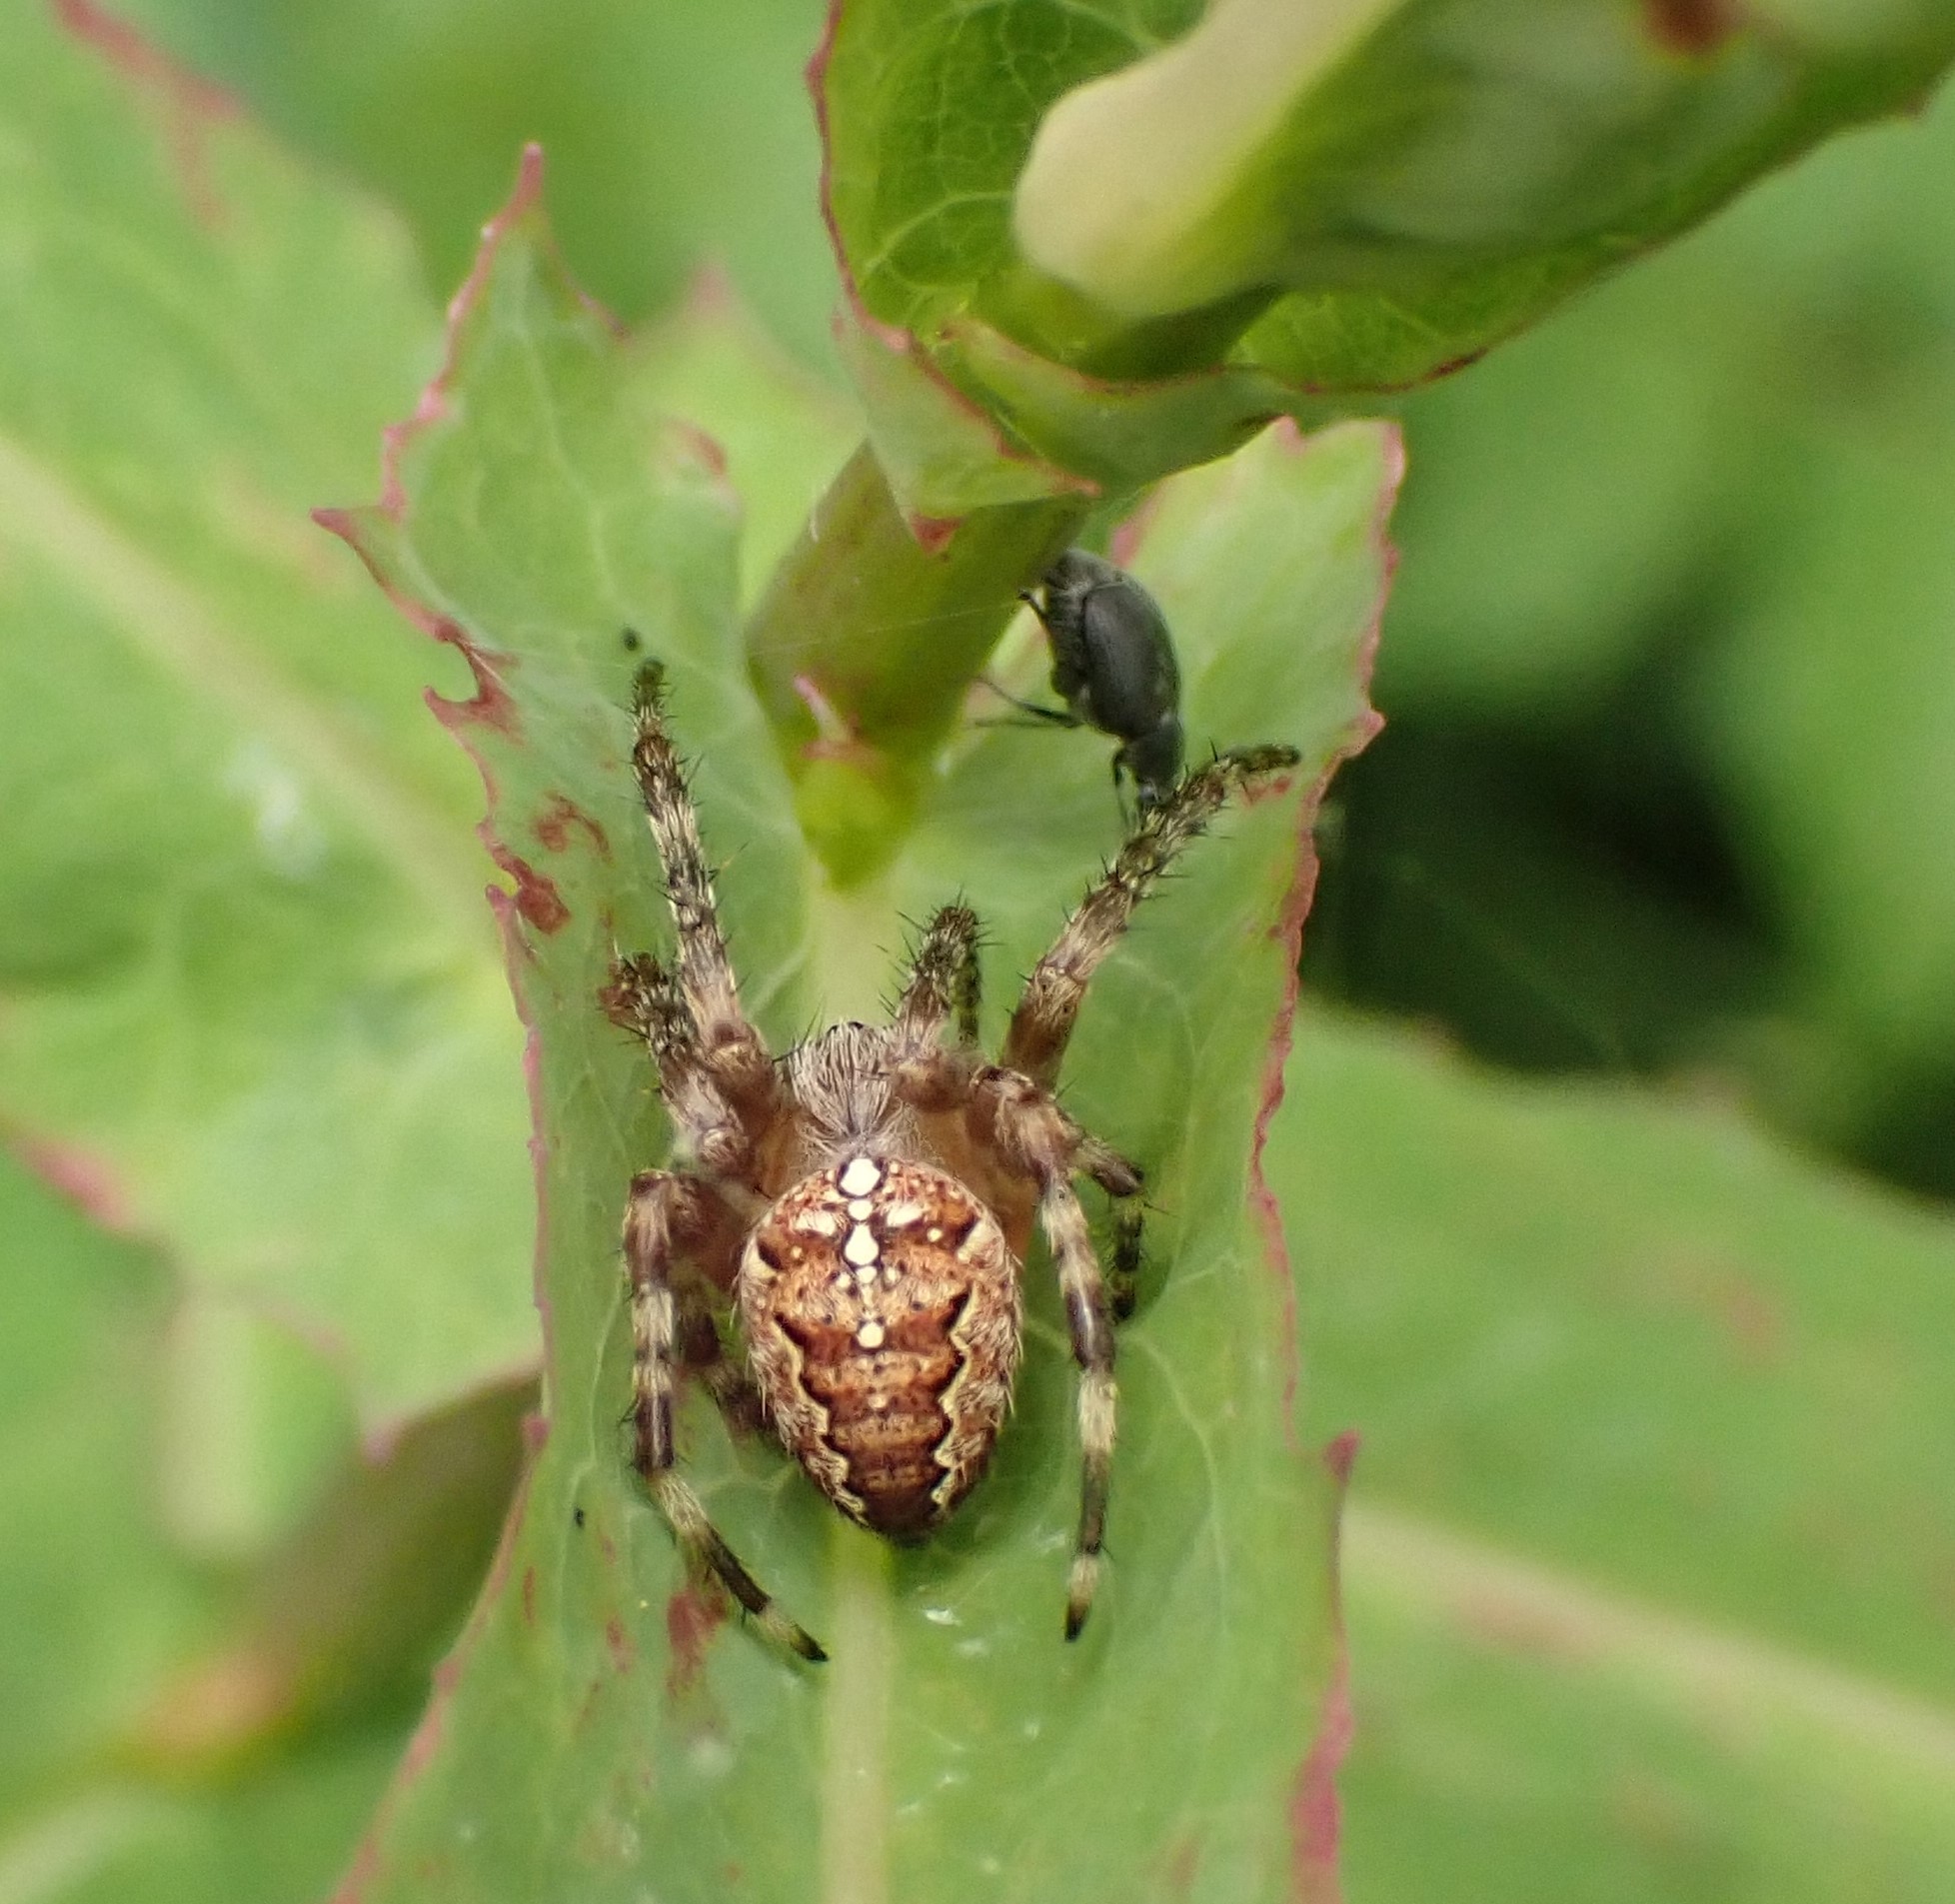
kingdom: Animalia
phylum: Arthropoda
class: Arachnida
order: Araneae
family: Araneidae
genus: Araneus
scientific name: Araneus diadematus
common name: Cross orbweaver
